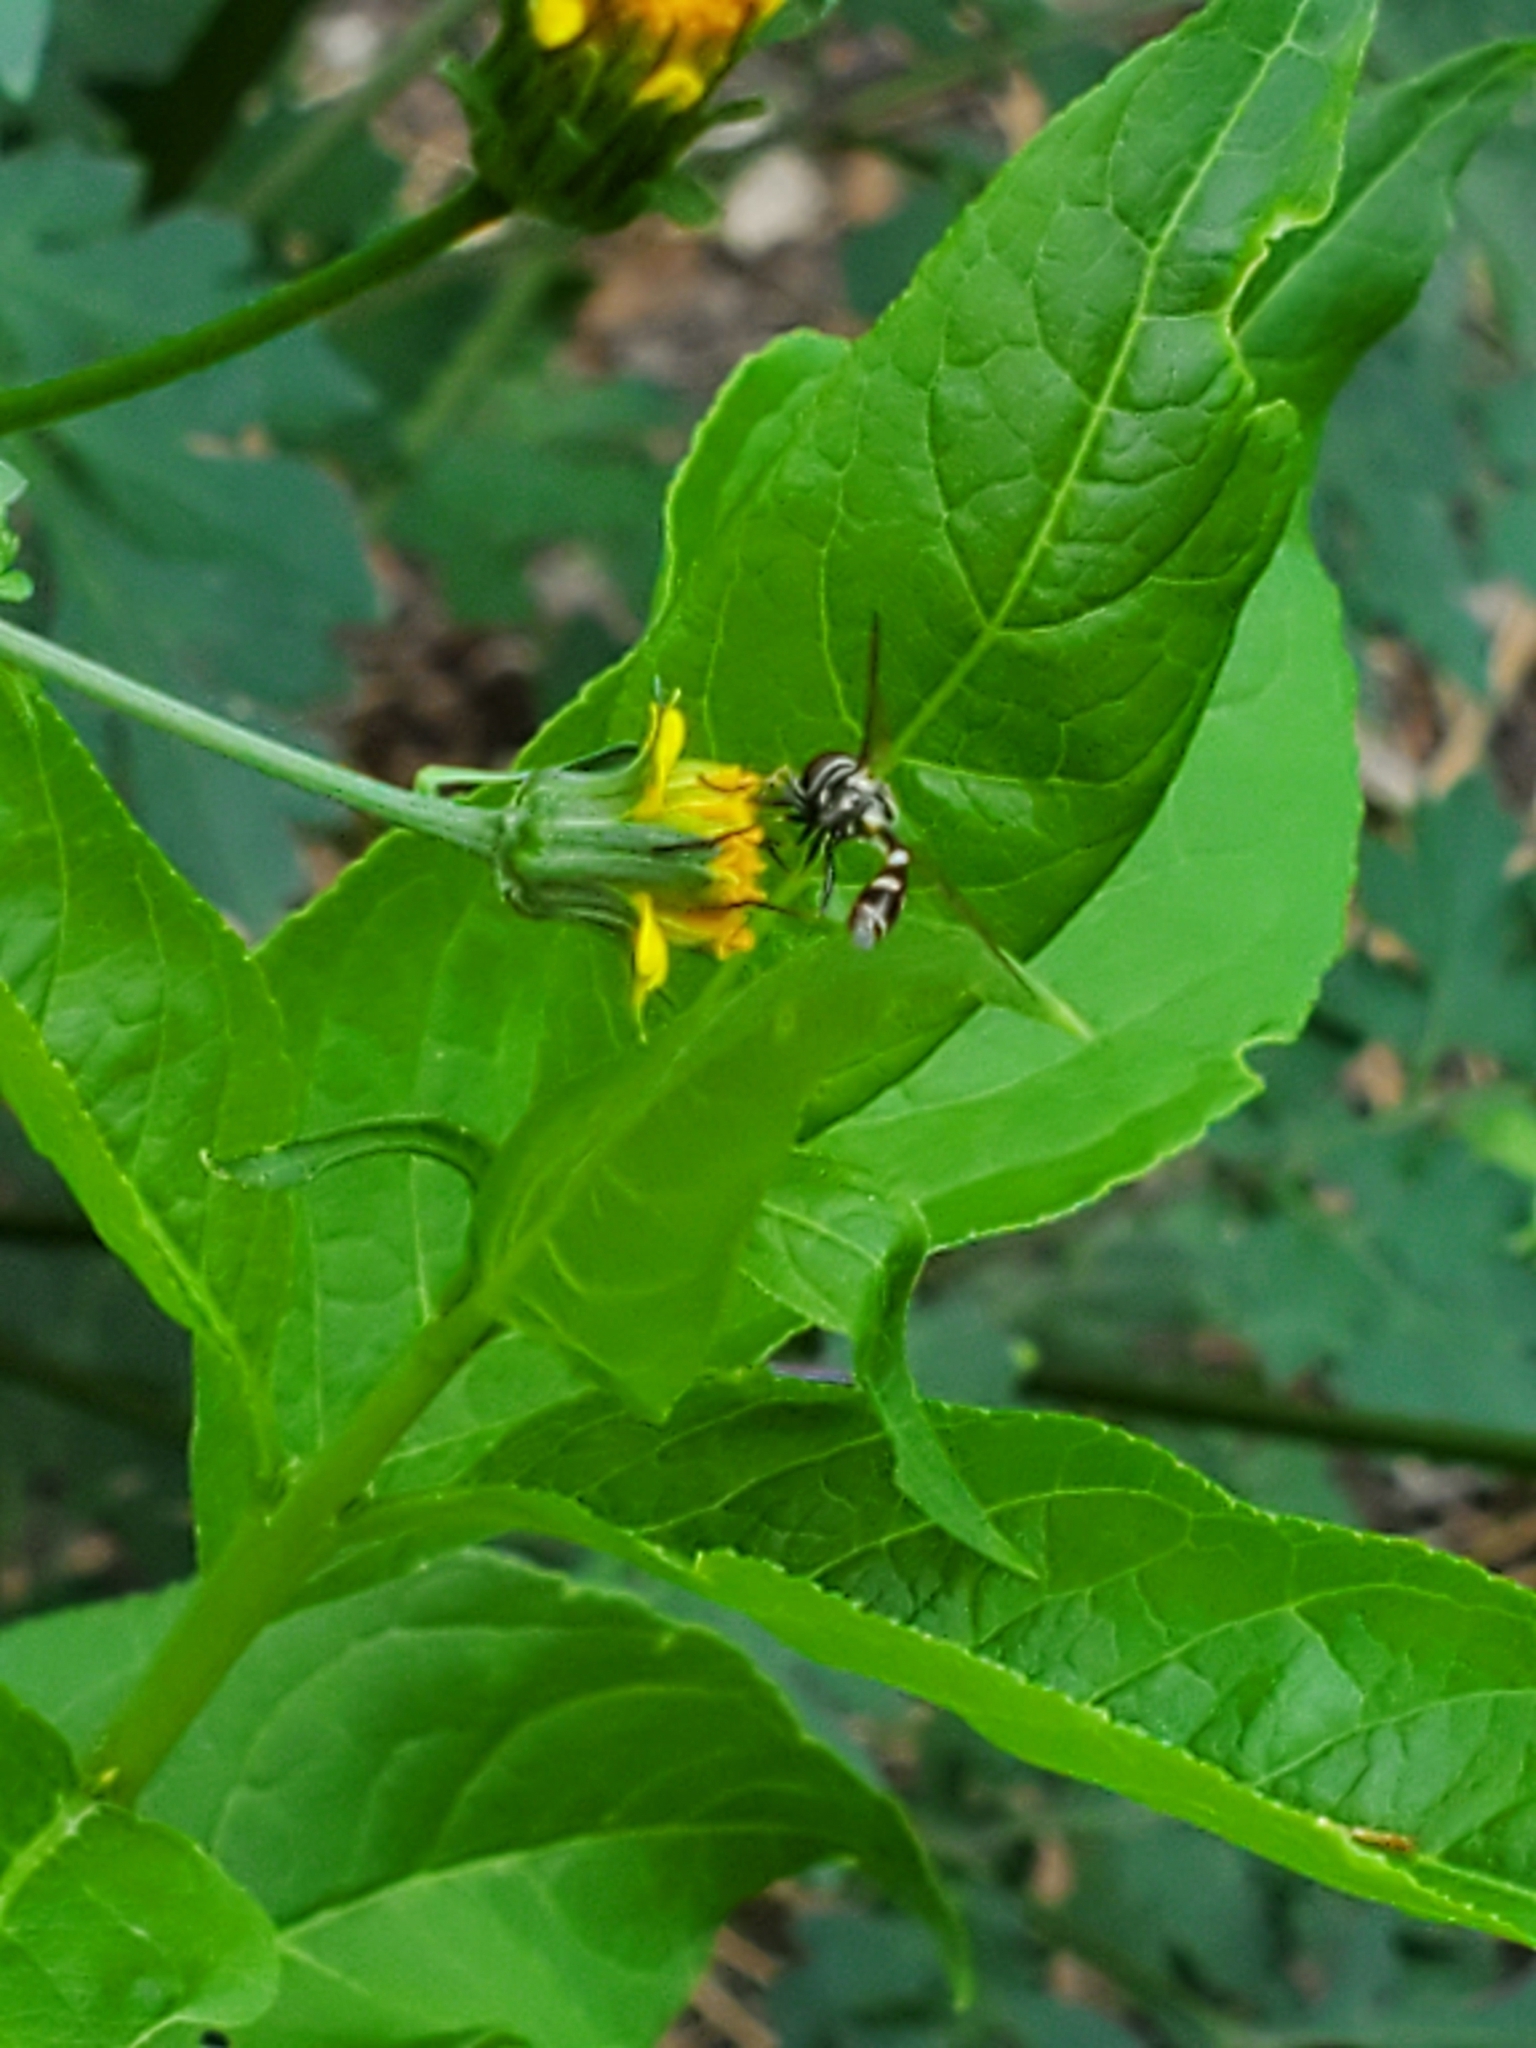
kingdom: Animalia
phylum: Arthropoda
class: Insecta
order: Diptera
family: Syrphidae
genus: Dioprosopa
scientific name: Dioprosopa clavatus
